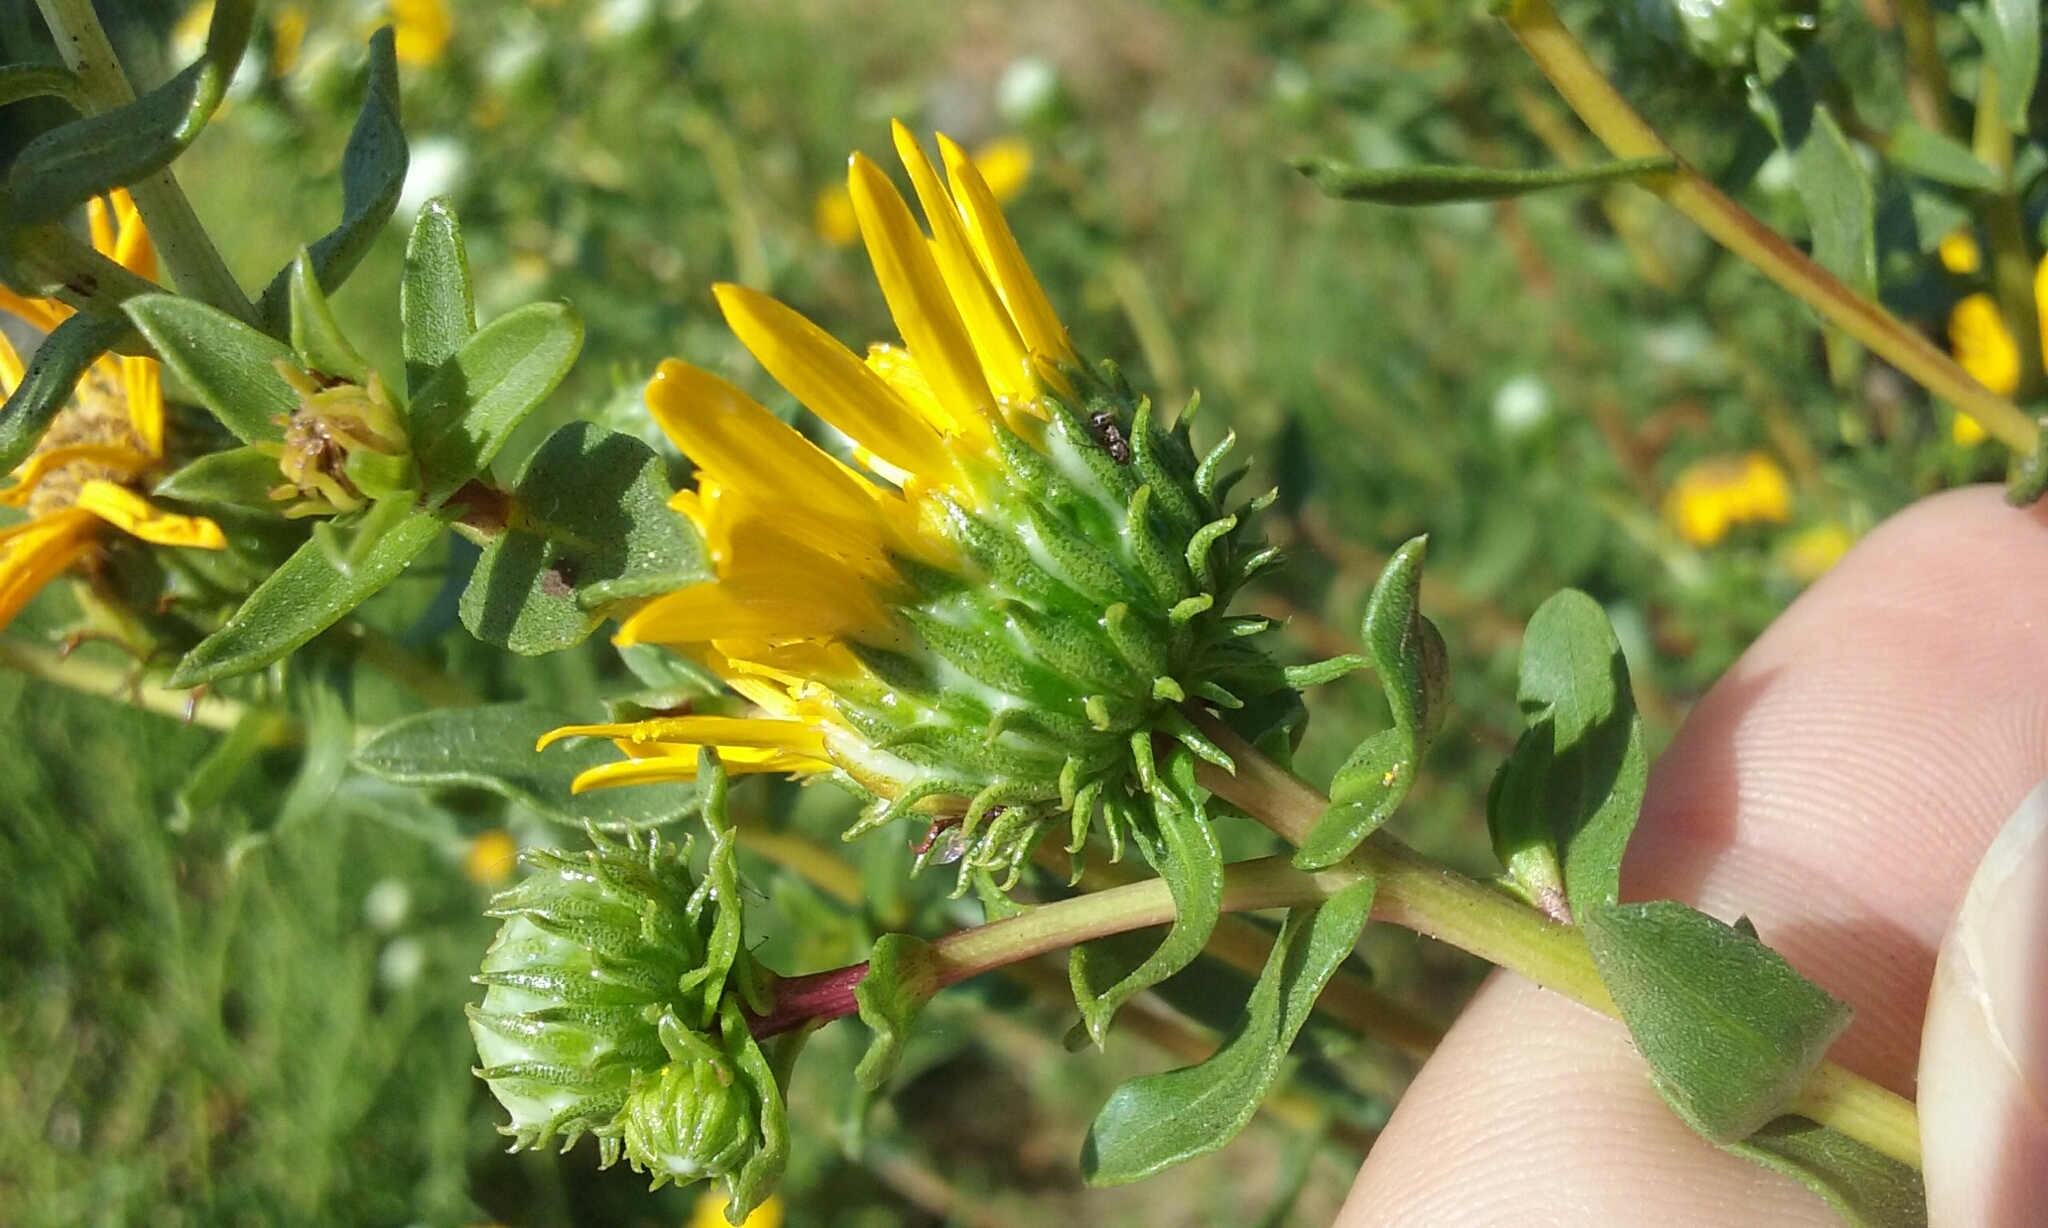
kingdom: Plantae
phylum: Tracheophyta
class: Magnoliopsida
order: Asterales
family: Asteraceae
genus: Grindelia
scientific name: Grindelia hirsutula
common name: Hairy gumweed
